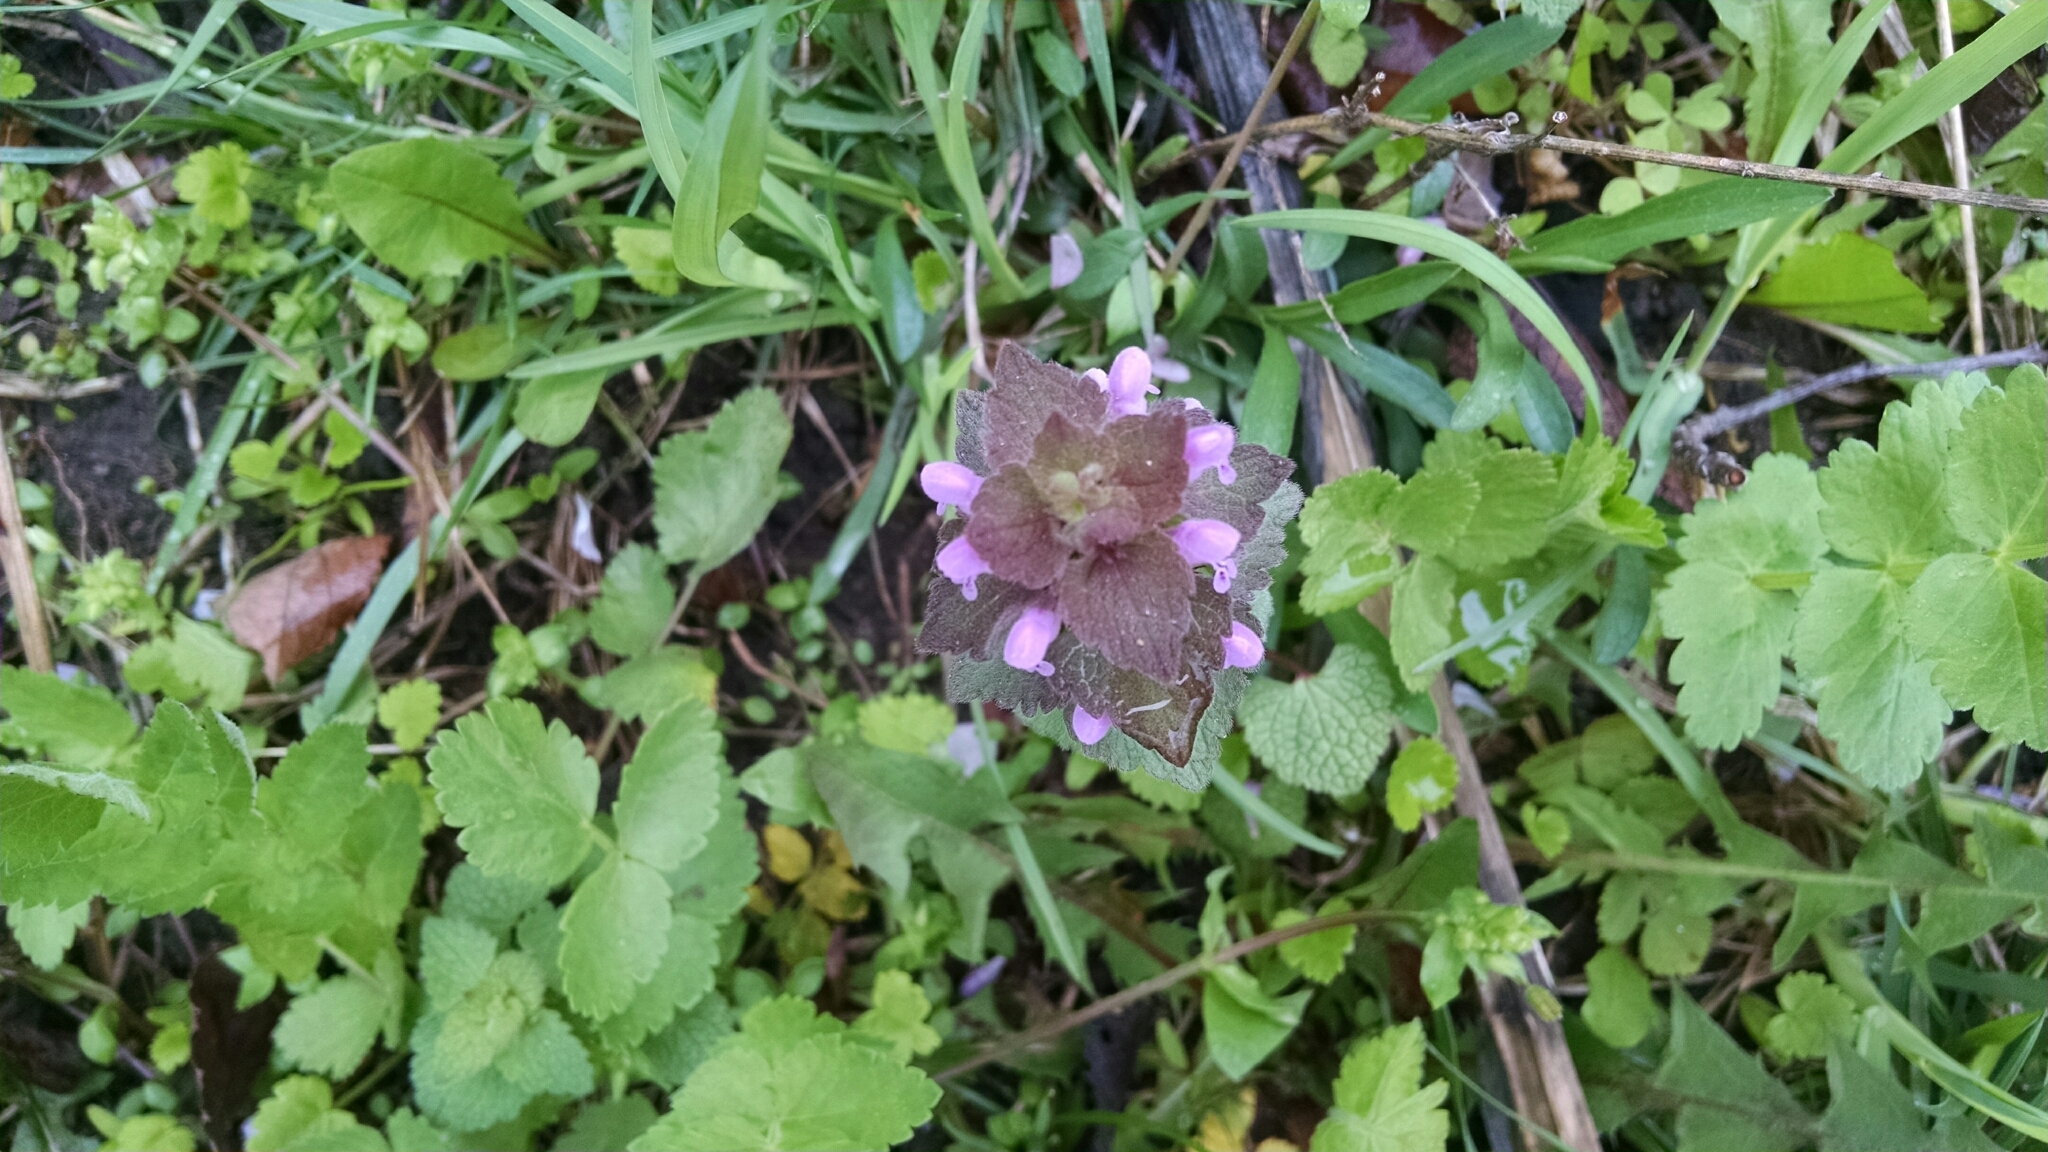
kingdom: Plantae
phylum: Tracheophyta
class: Magnoliopsida
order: Lamiales
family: Lamiaceae
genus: Lamium
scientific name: Lamium purpureum
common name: Red dead-nettle
